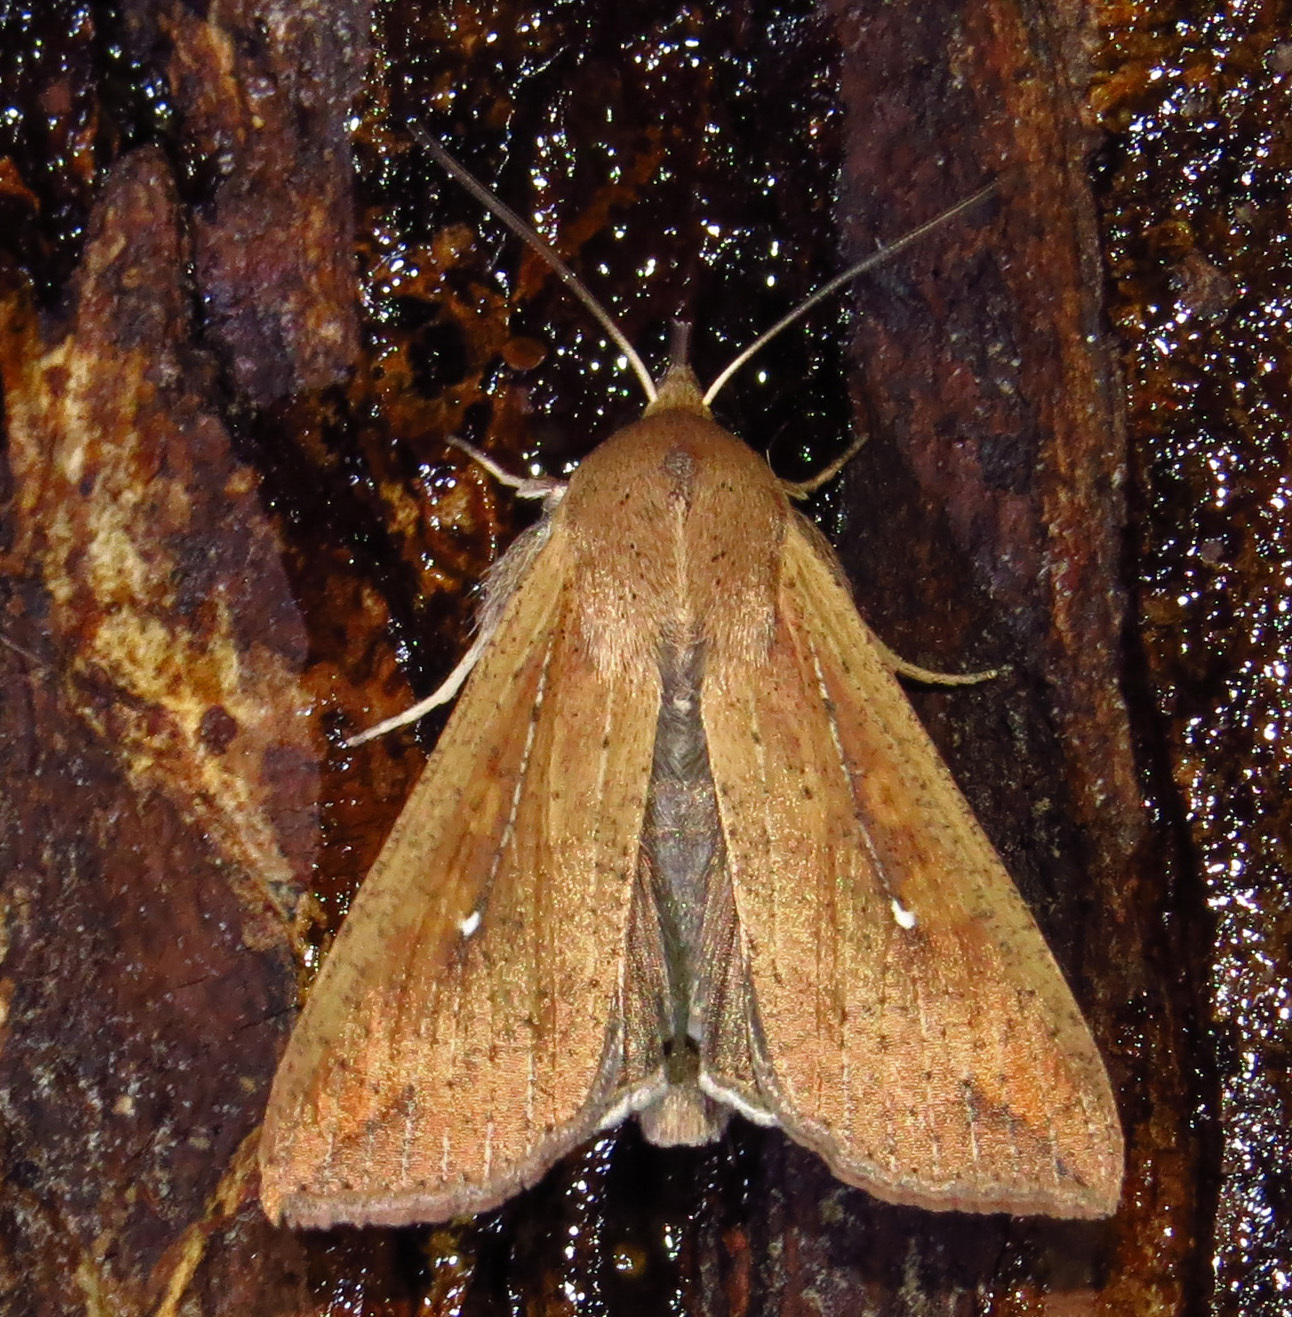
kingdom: Animalia
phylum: Arthropoda
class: Insecta
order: Lepidoptera
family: Noctuidae
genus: Mythimna
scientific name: Mythimna unipuncta
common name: White-speck
